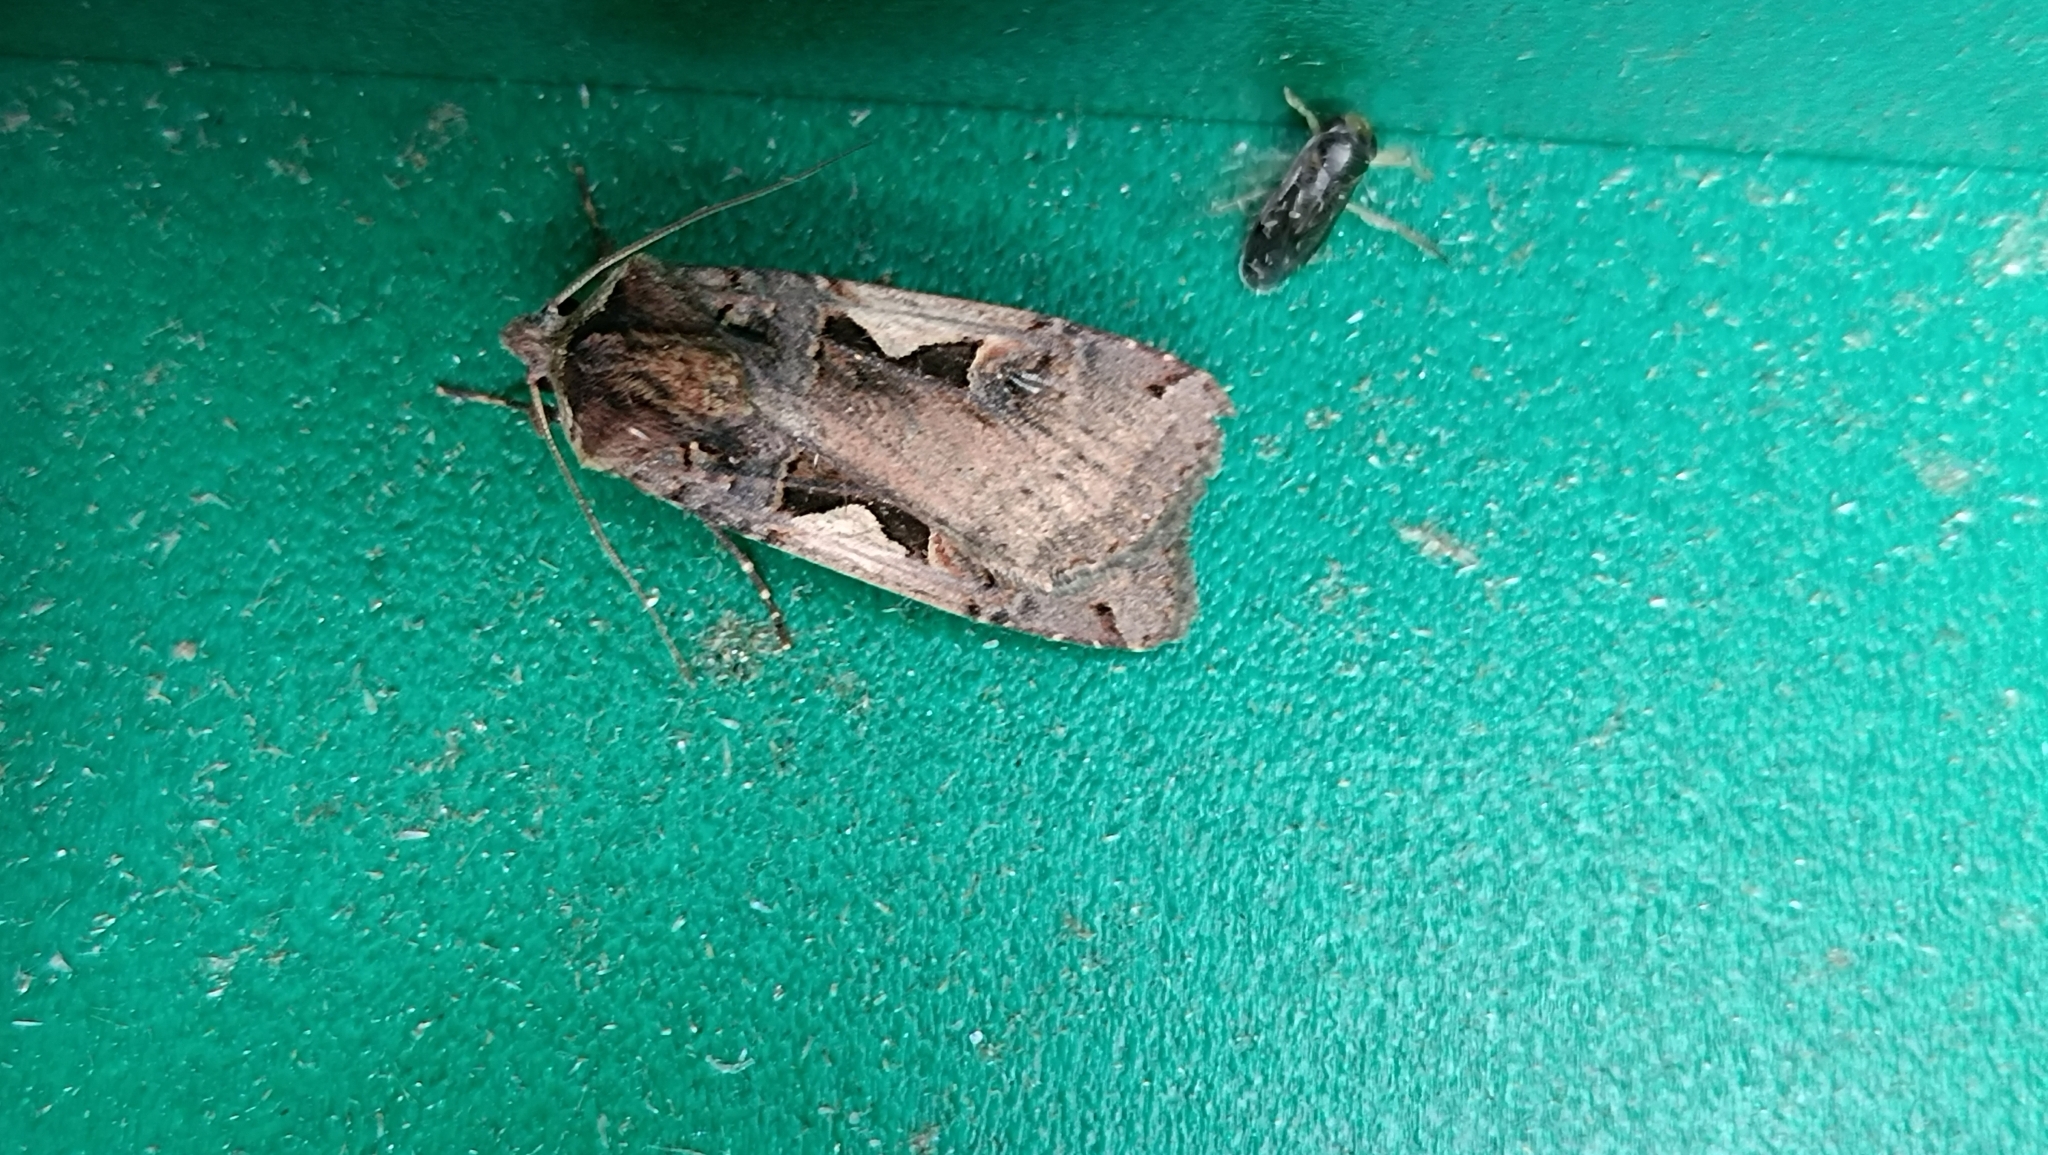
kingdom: Animalia
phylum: Arthropoda
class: Insecta
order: Lepidoptera
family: Noctuidae
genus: Xestia
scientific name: Xestia c-nigrum
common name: Setaceous hebrew character
